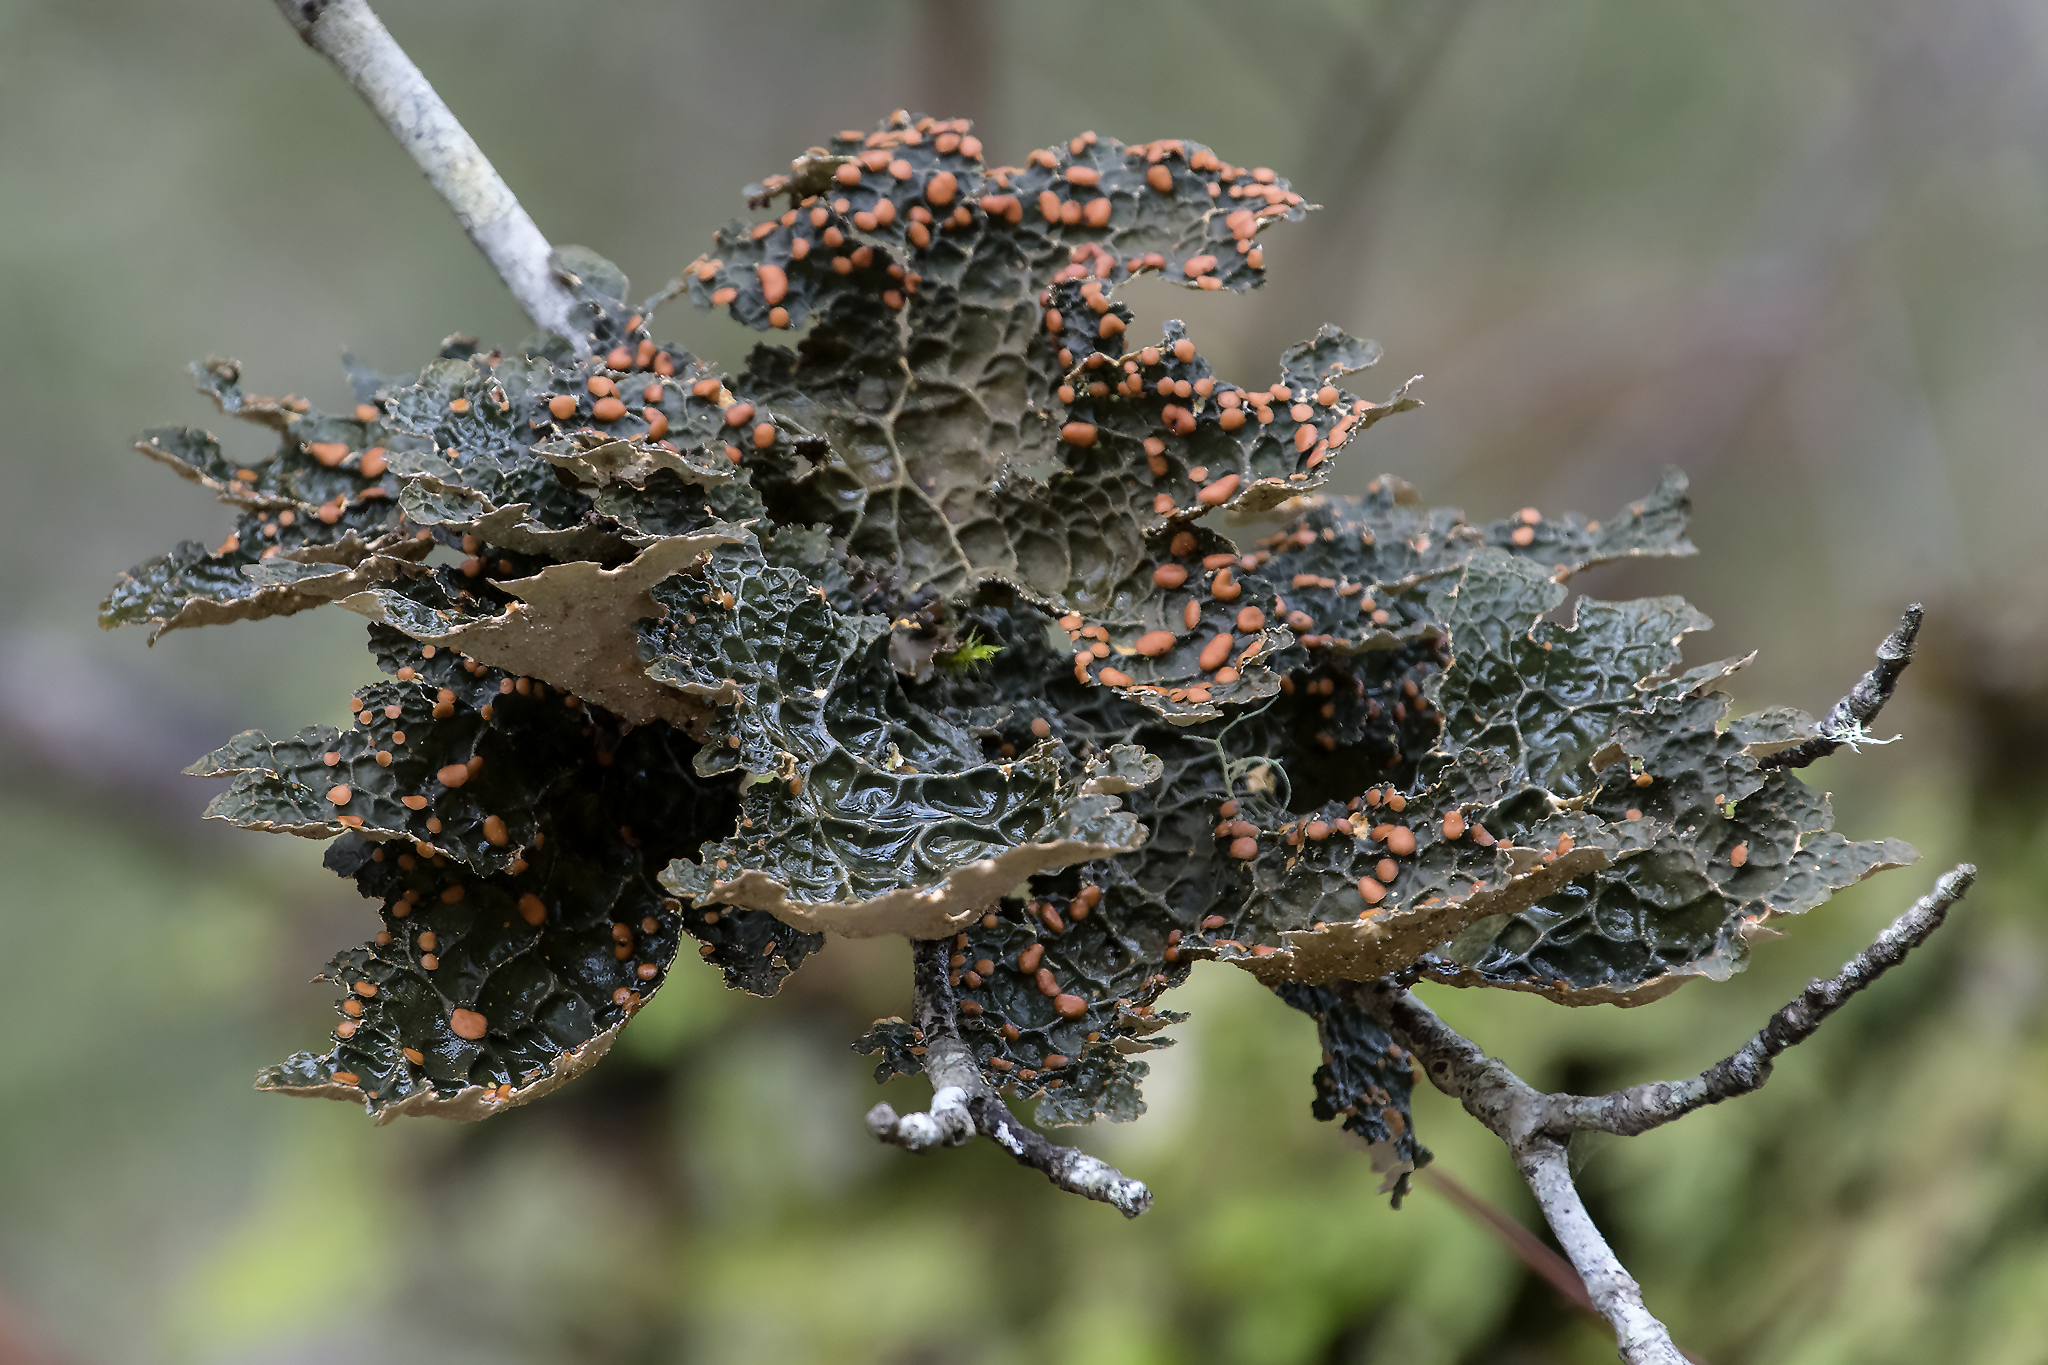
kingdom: Fungi
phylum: Ascomycota
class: Lecanoromycetes
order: Peltigerales
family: Lobariaceae
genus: Lobaria
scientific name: Lobaria pulmonaria
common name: Lungwort
